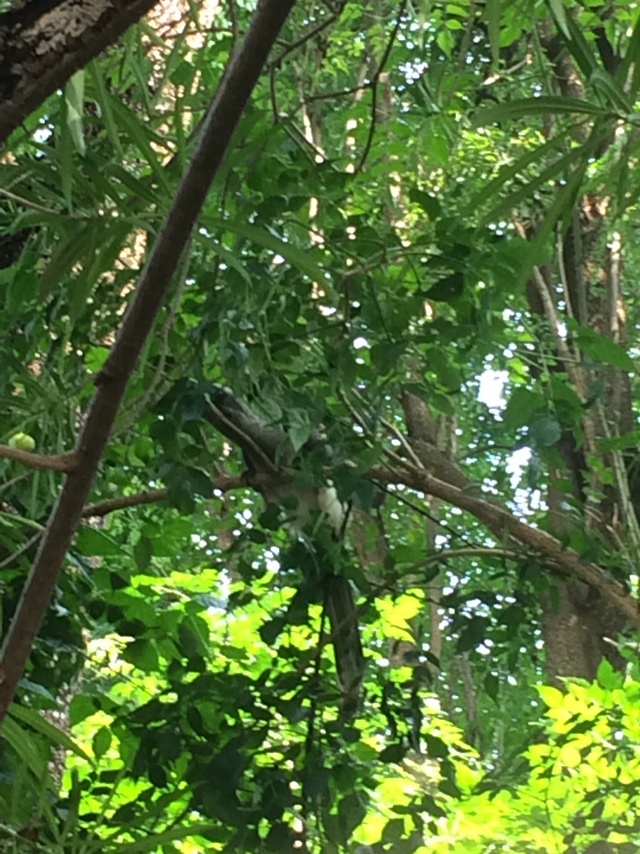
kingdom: Animalia
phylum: Chordata
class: Aves
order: Bucerotiformes
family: Bucerotidae
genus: Ocyceros
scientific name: Ocyceros birostris
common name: Indian grey hornbill
